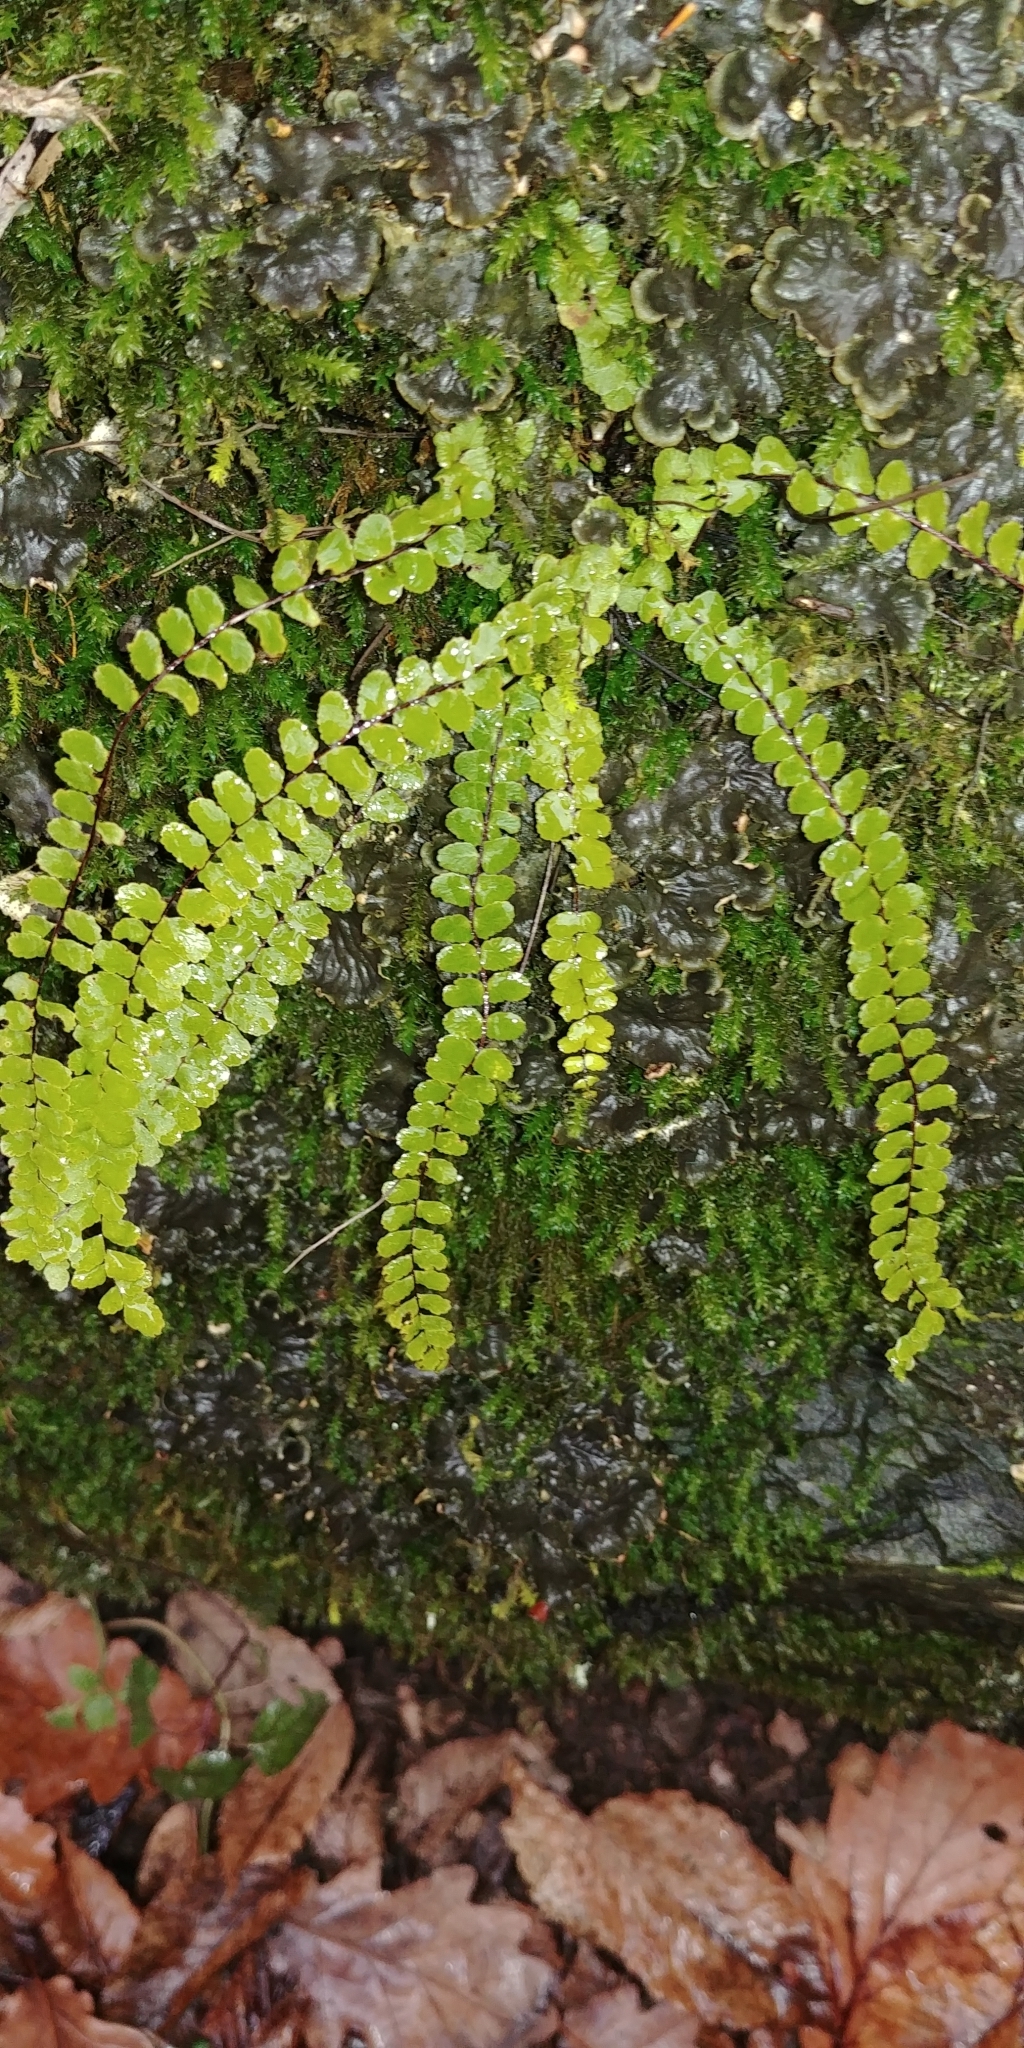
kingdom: Plantae
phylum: Tracheophyta
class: Polypodiopsida
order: Polypodiales
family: Aspleniaceae
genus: Asplenium
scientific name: Asplenium trichomanes
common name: Maidenhair spleenwort
